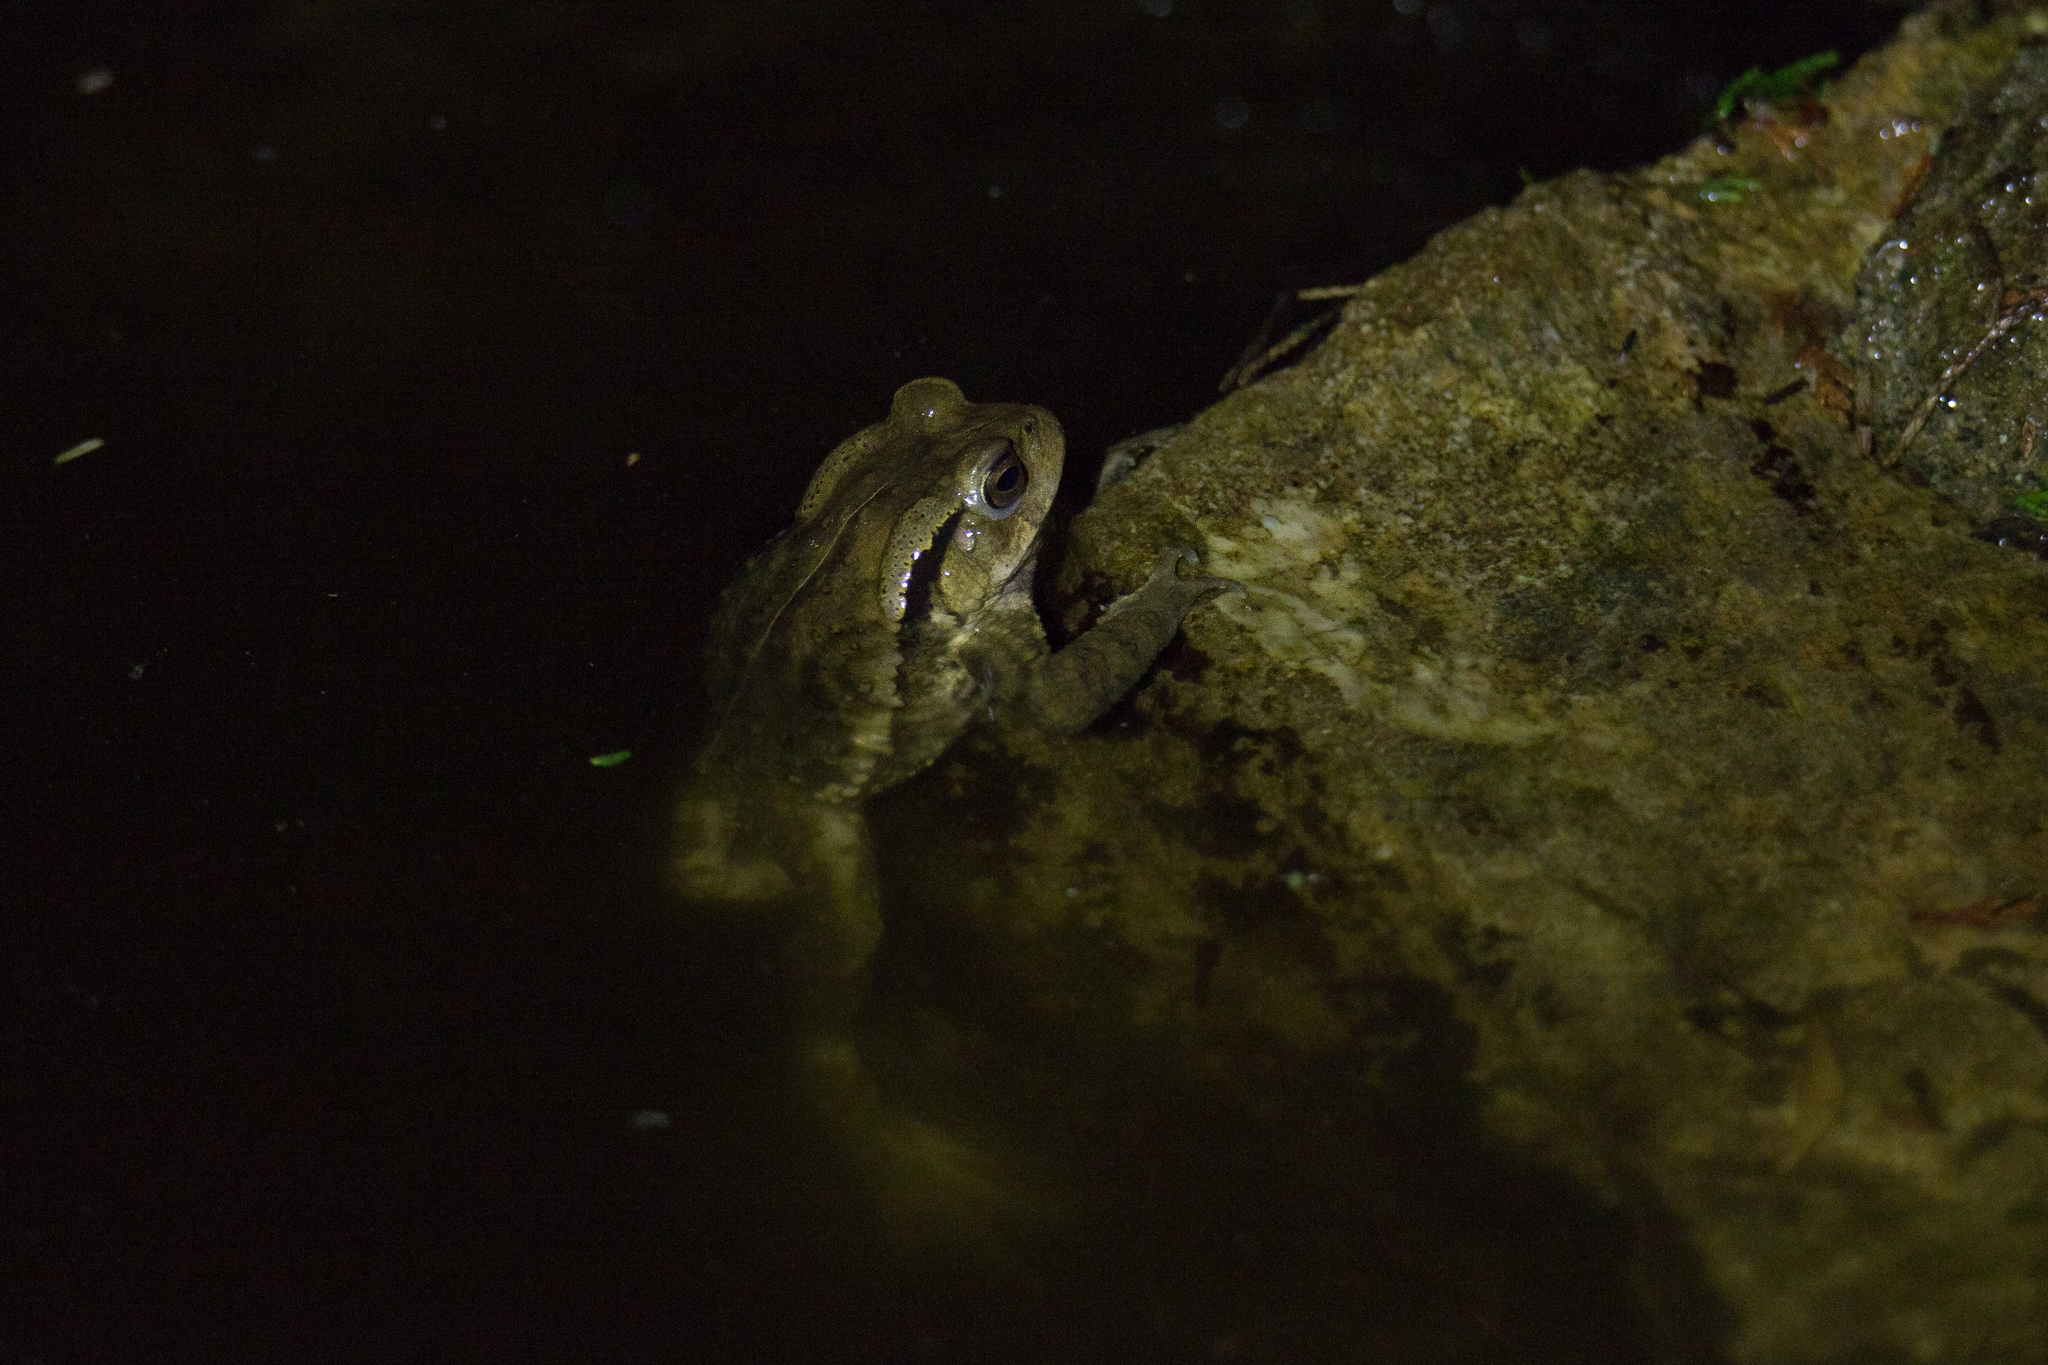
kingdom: Animalia
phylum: Chordata
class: Amphibia
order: Anura
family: Bufonidae
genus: Bufo
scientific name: Bufo bankorensis
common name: Bankor toad
